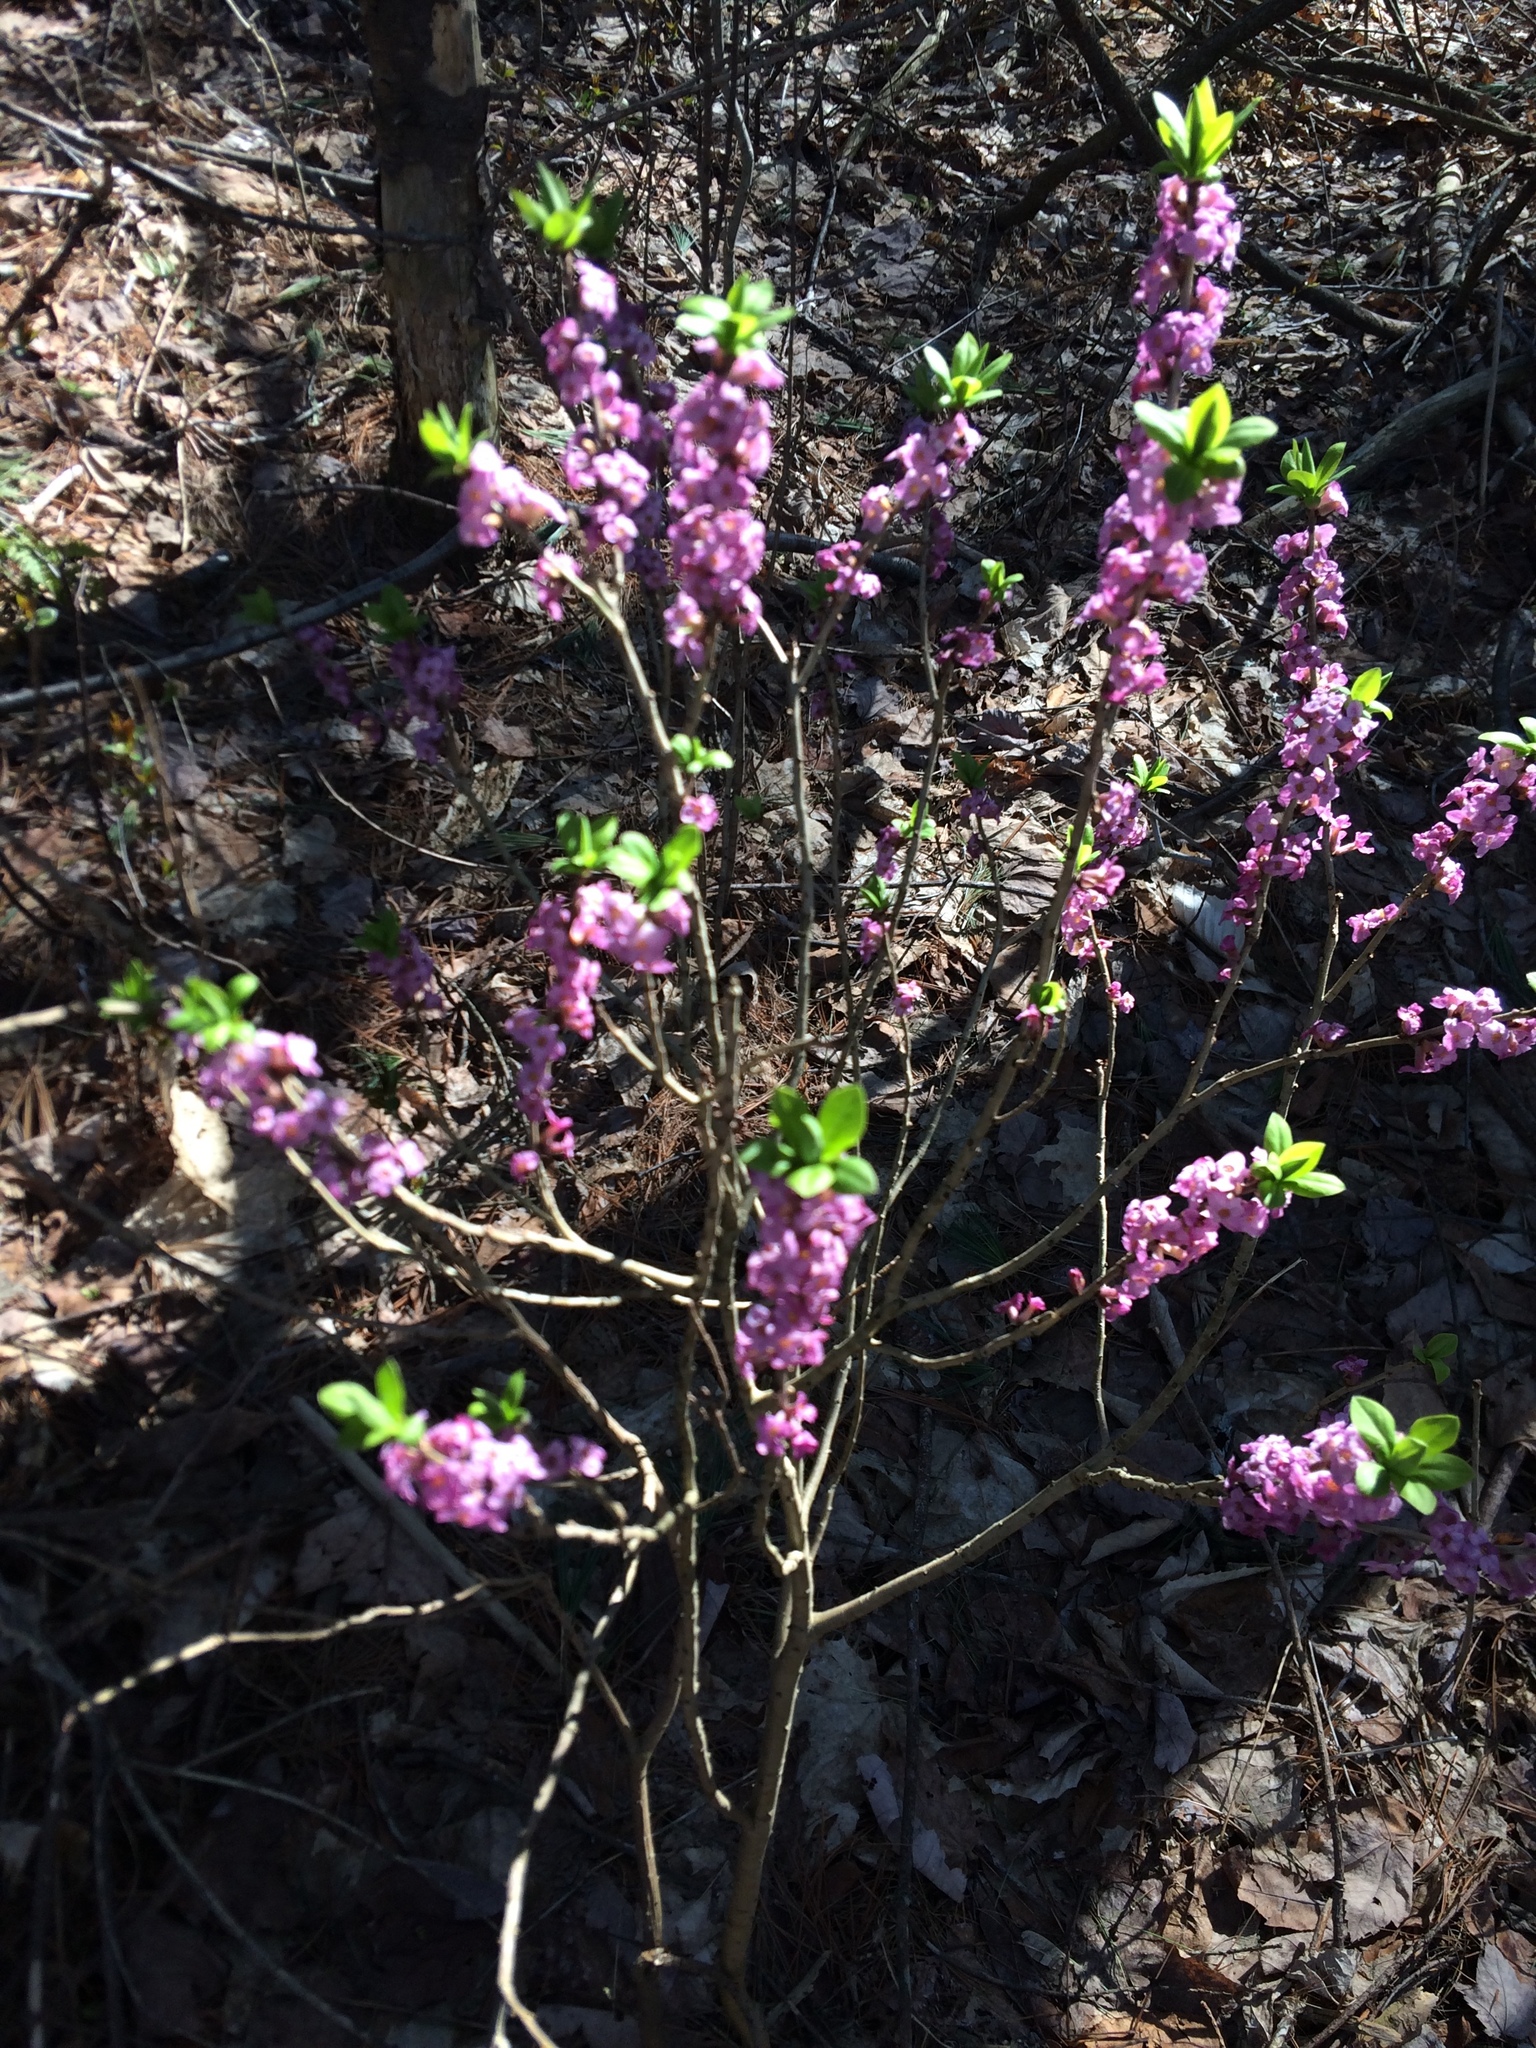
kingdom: Plantae
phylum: Tracheophyta
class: Magnoliopsida
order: Malvales
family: Thymelaeaceae
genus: Daphne
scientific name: Daphne mezereum
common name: Mezereon
